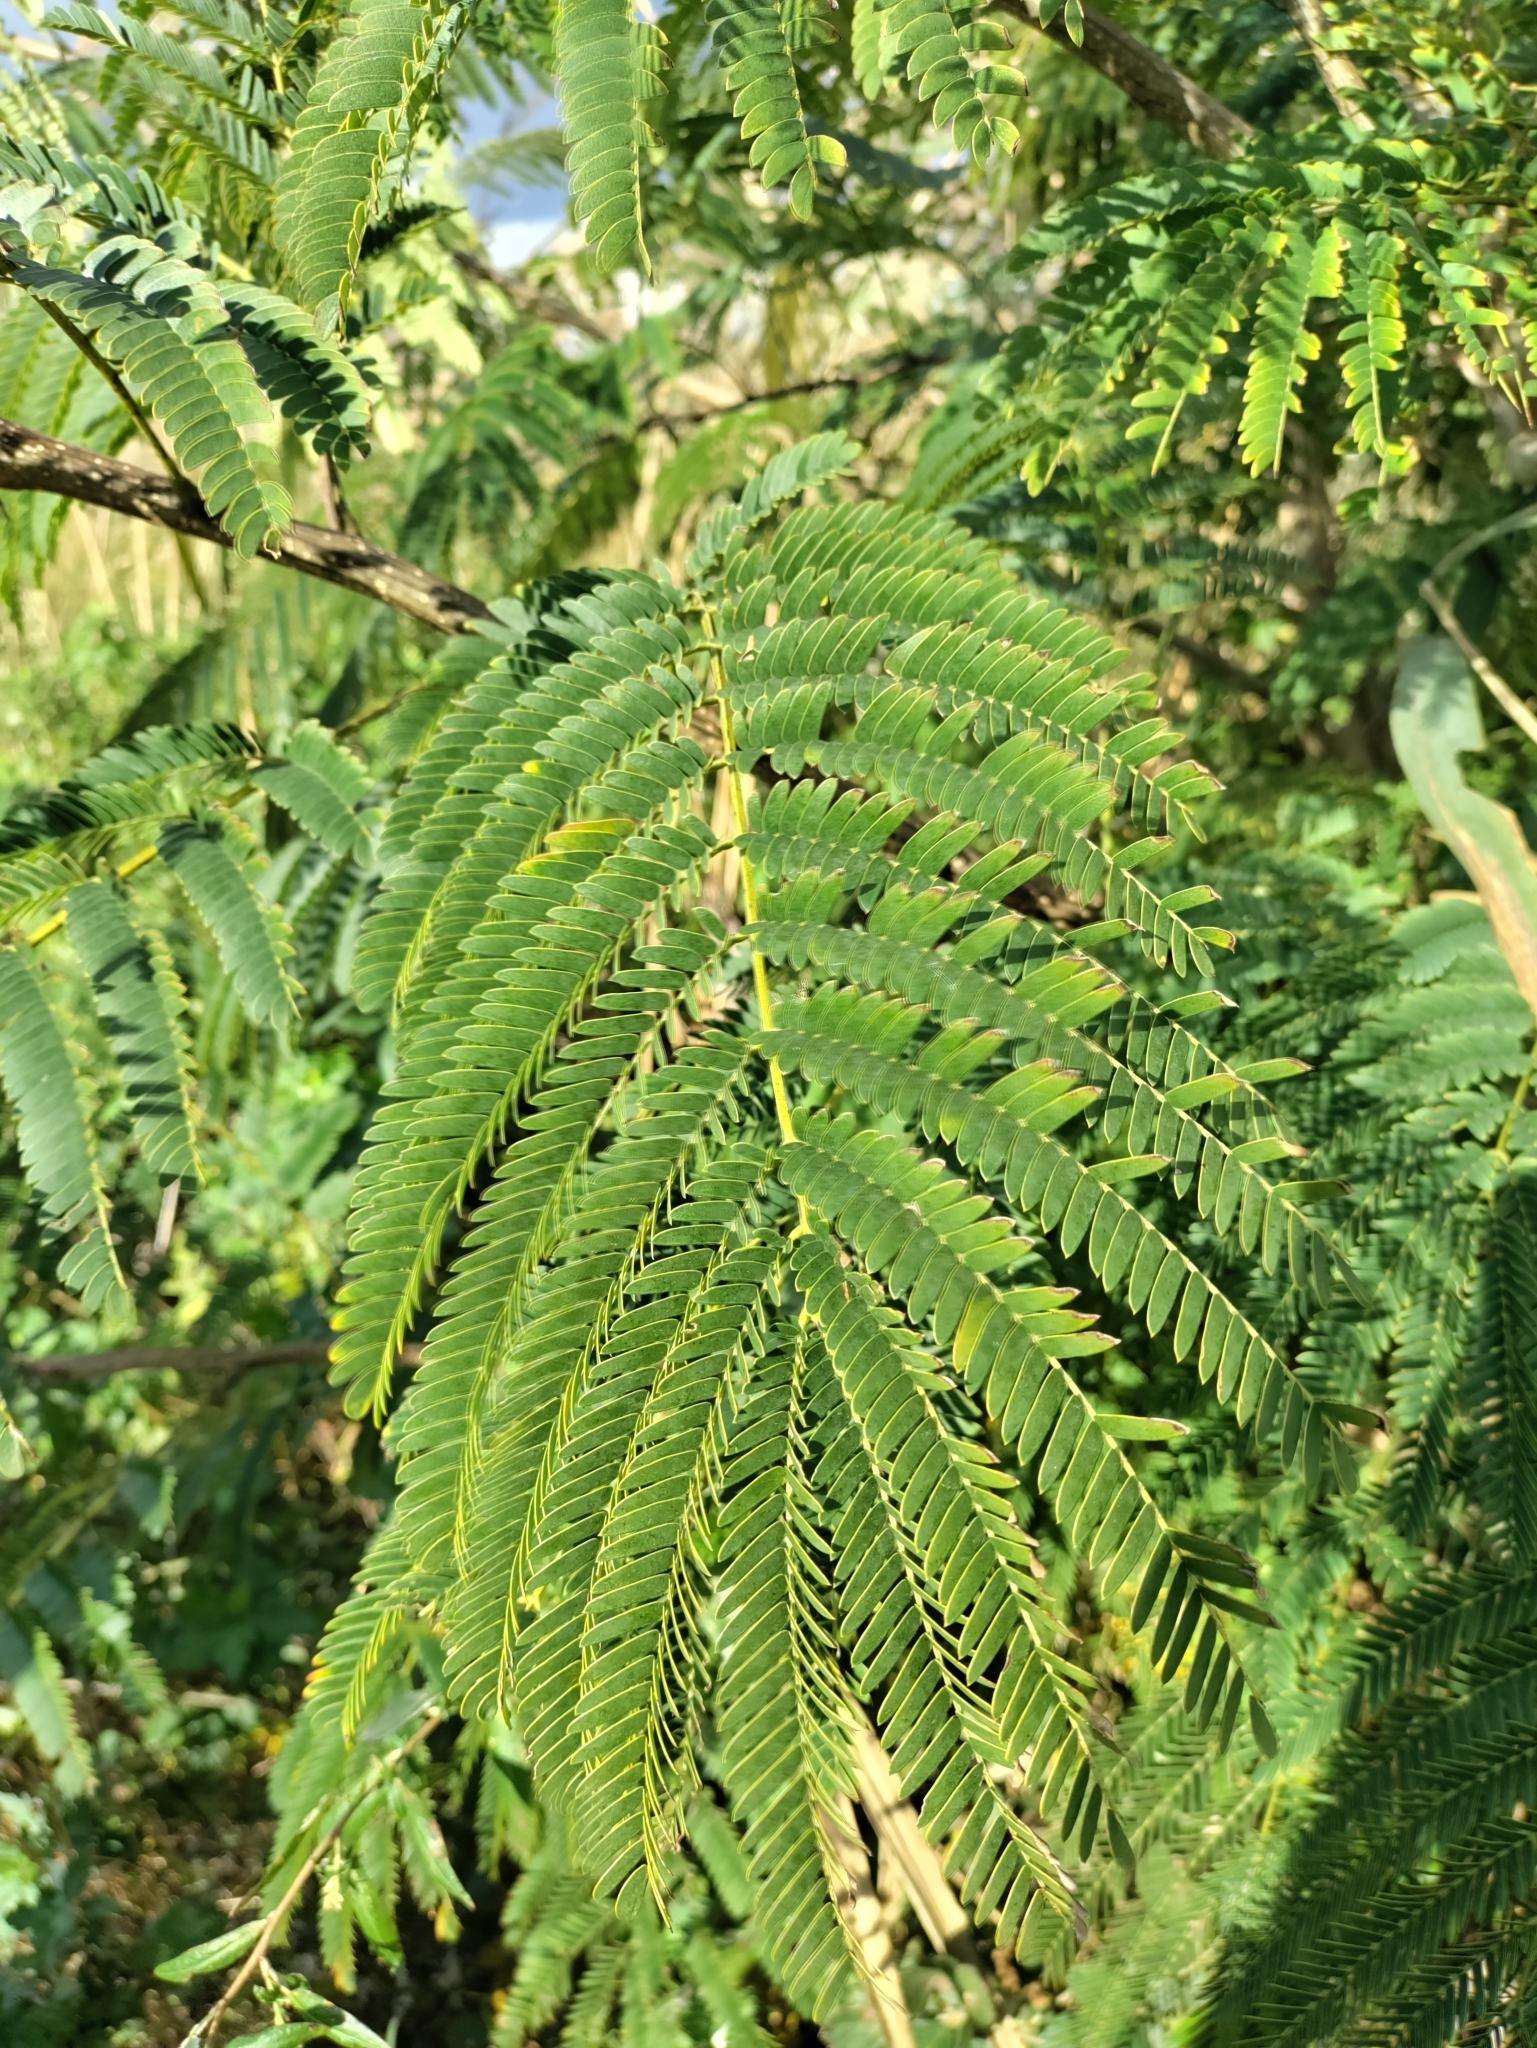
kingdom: Plantae
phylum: Tracheophyta
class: Magnoliopsida
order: Fabales
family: Fabaceae
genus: Albizia
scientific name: Albizia julibrissin
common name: Silktree
